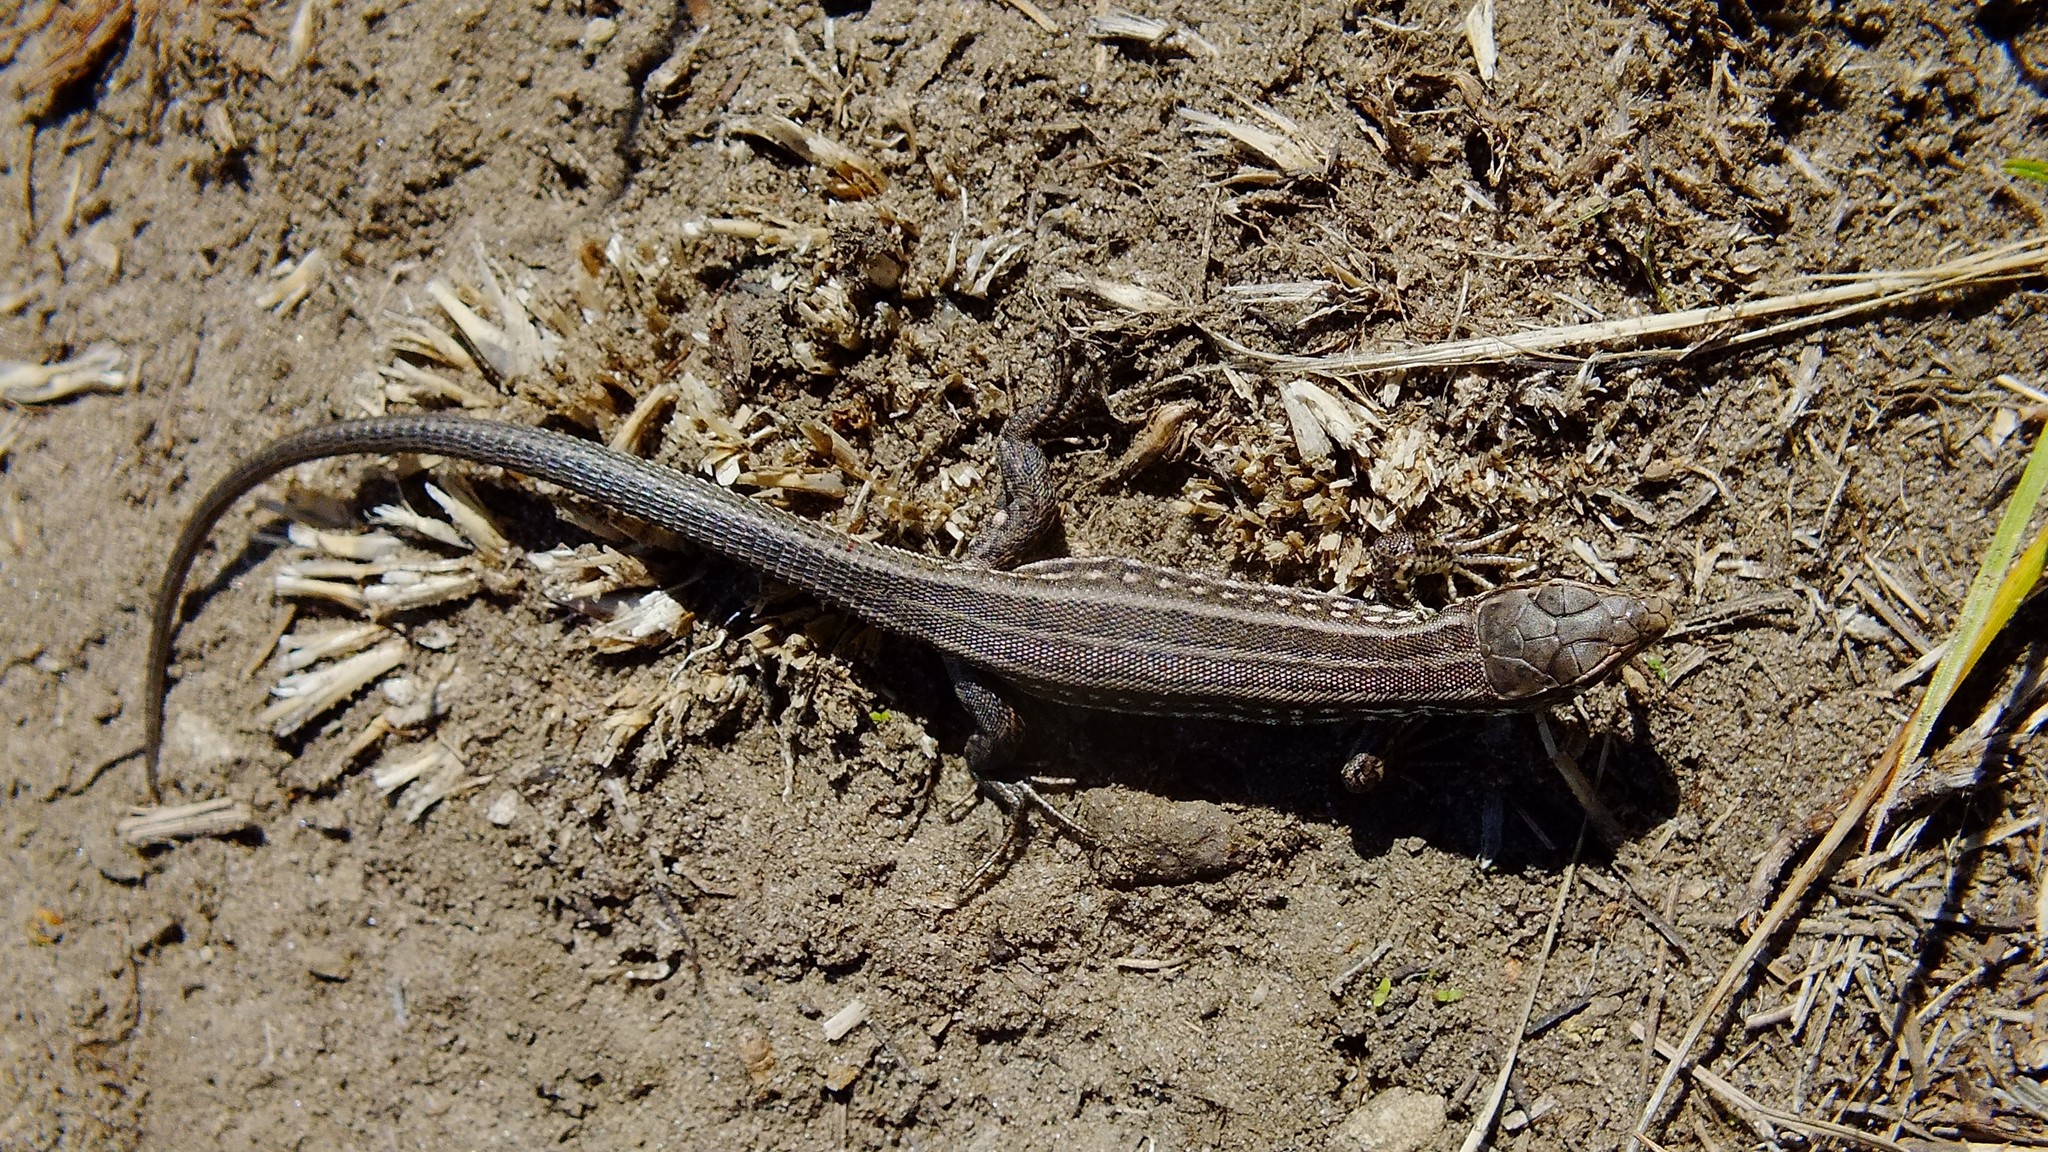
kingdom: Animalia
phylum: Chordata
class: Squamata
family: Lacertidae
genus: Lacerta
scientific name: Lacerta agilis
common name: Sand lizard
